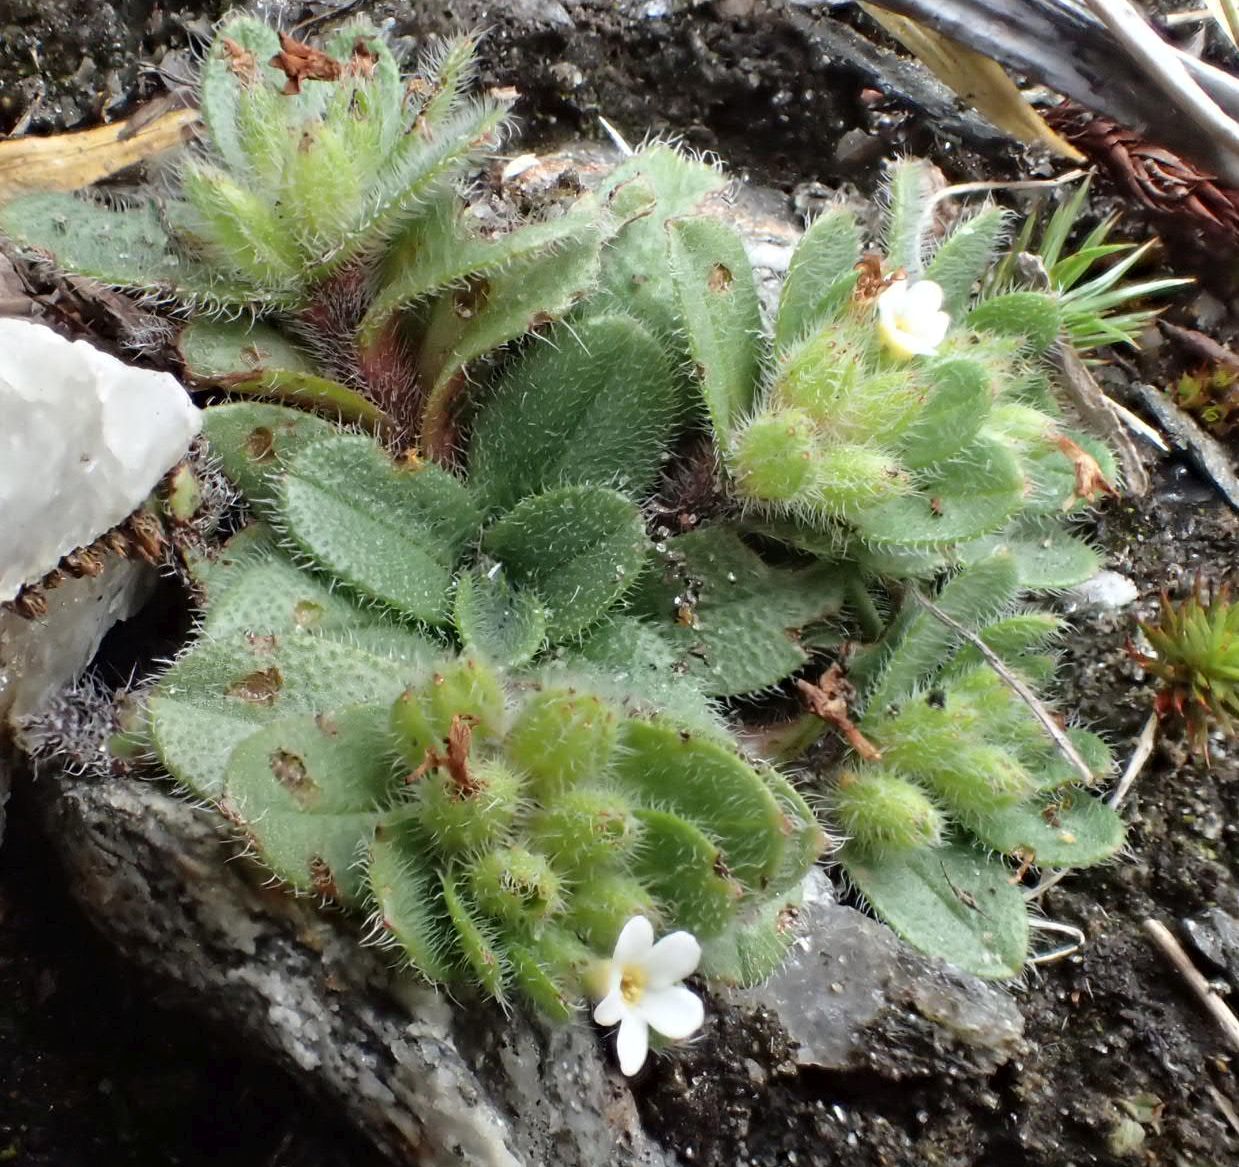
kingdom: Plantae
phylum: Tracheophyta
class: Magnoliopsida
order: Boraginales
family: Boraginaceae
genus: Myosotis
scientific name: Myosotis antarctica
